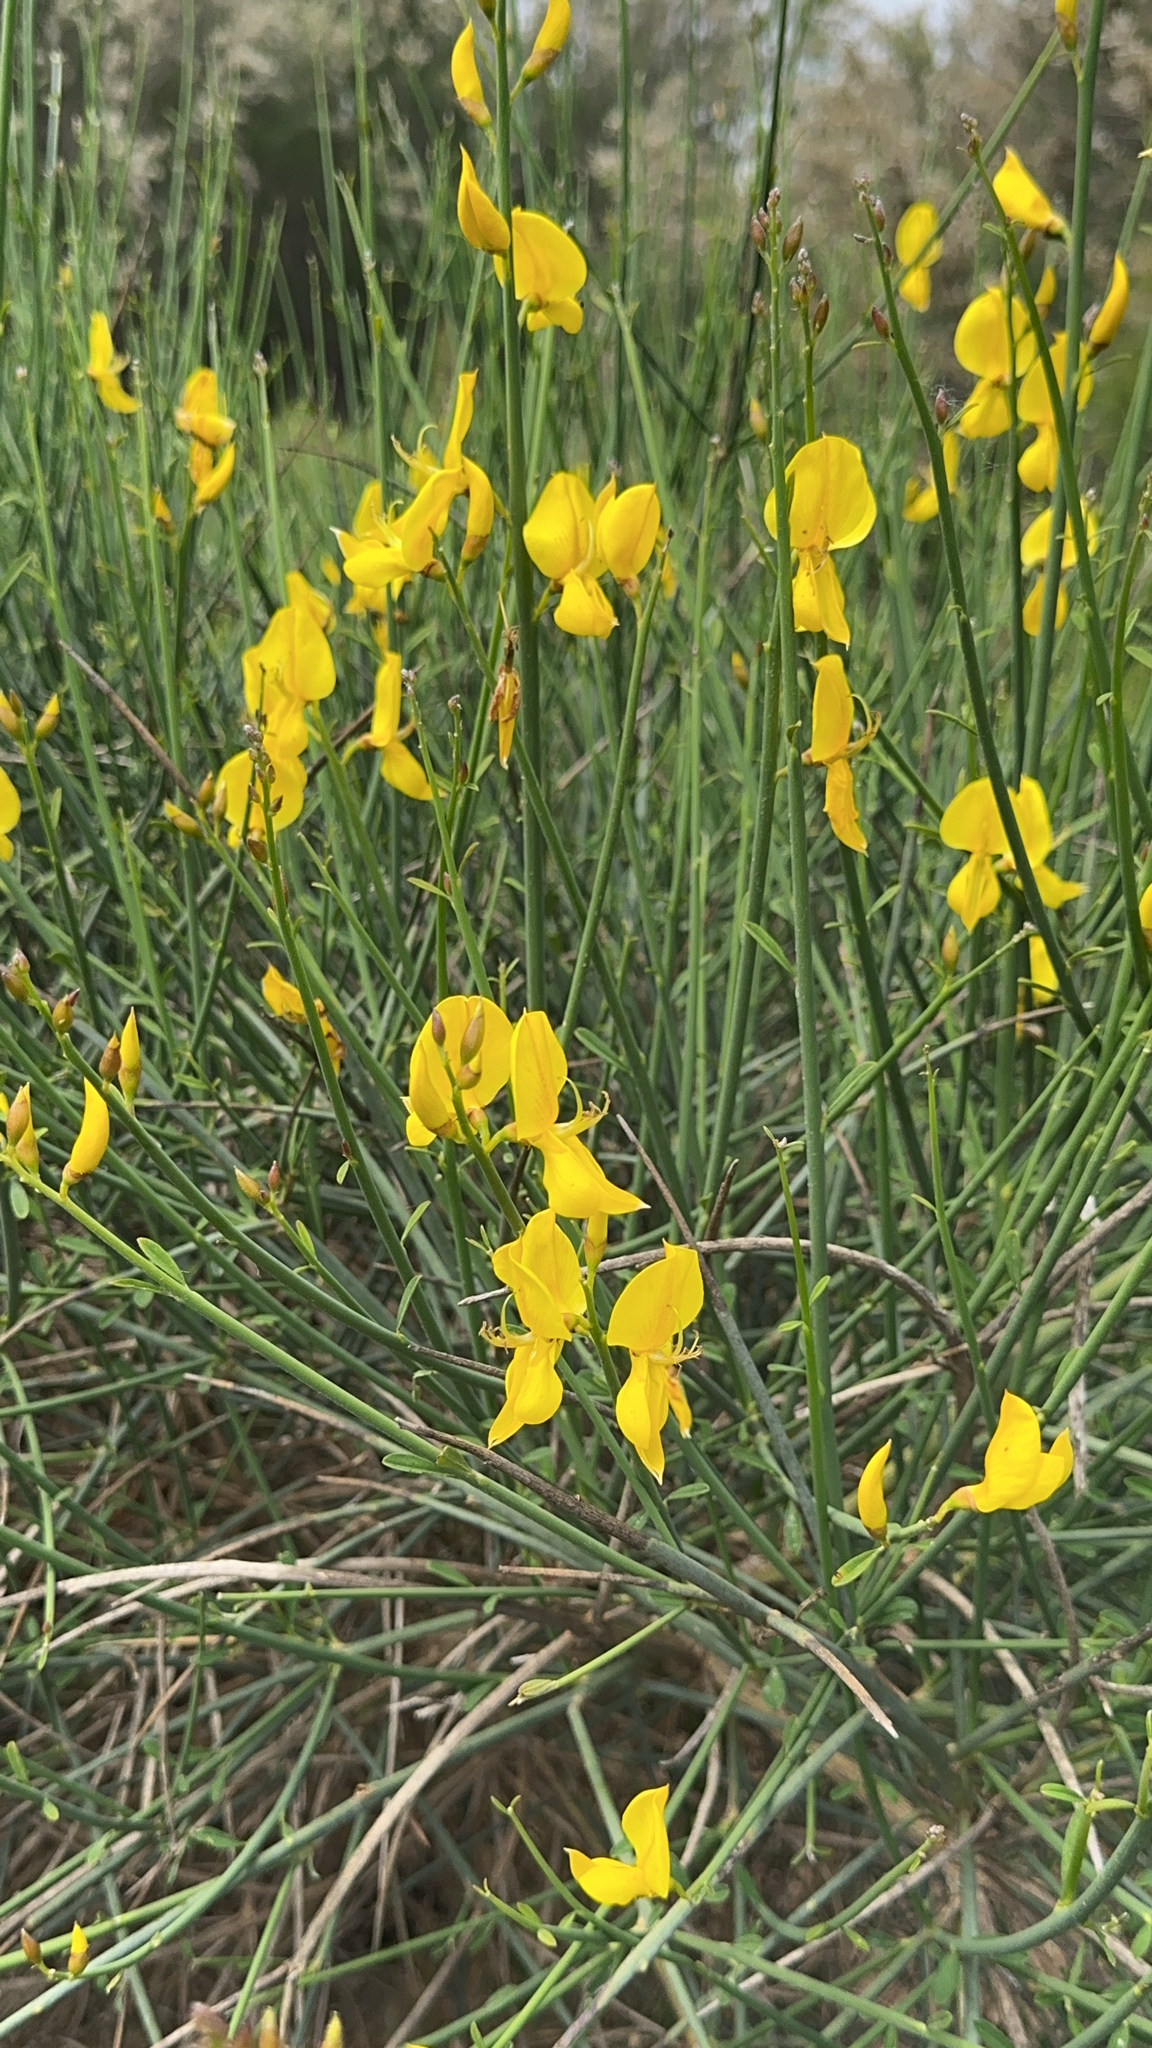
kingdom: Plantae
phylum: Tracheophyta
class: Magnoliopsida
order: Fabales
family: Fabaceae
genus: Spartium
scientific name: Spartium junceum
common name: Spanish broom
